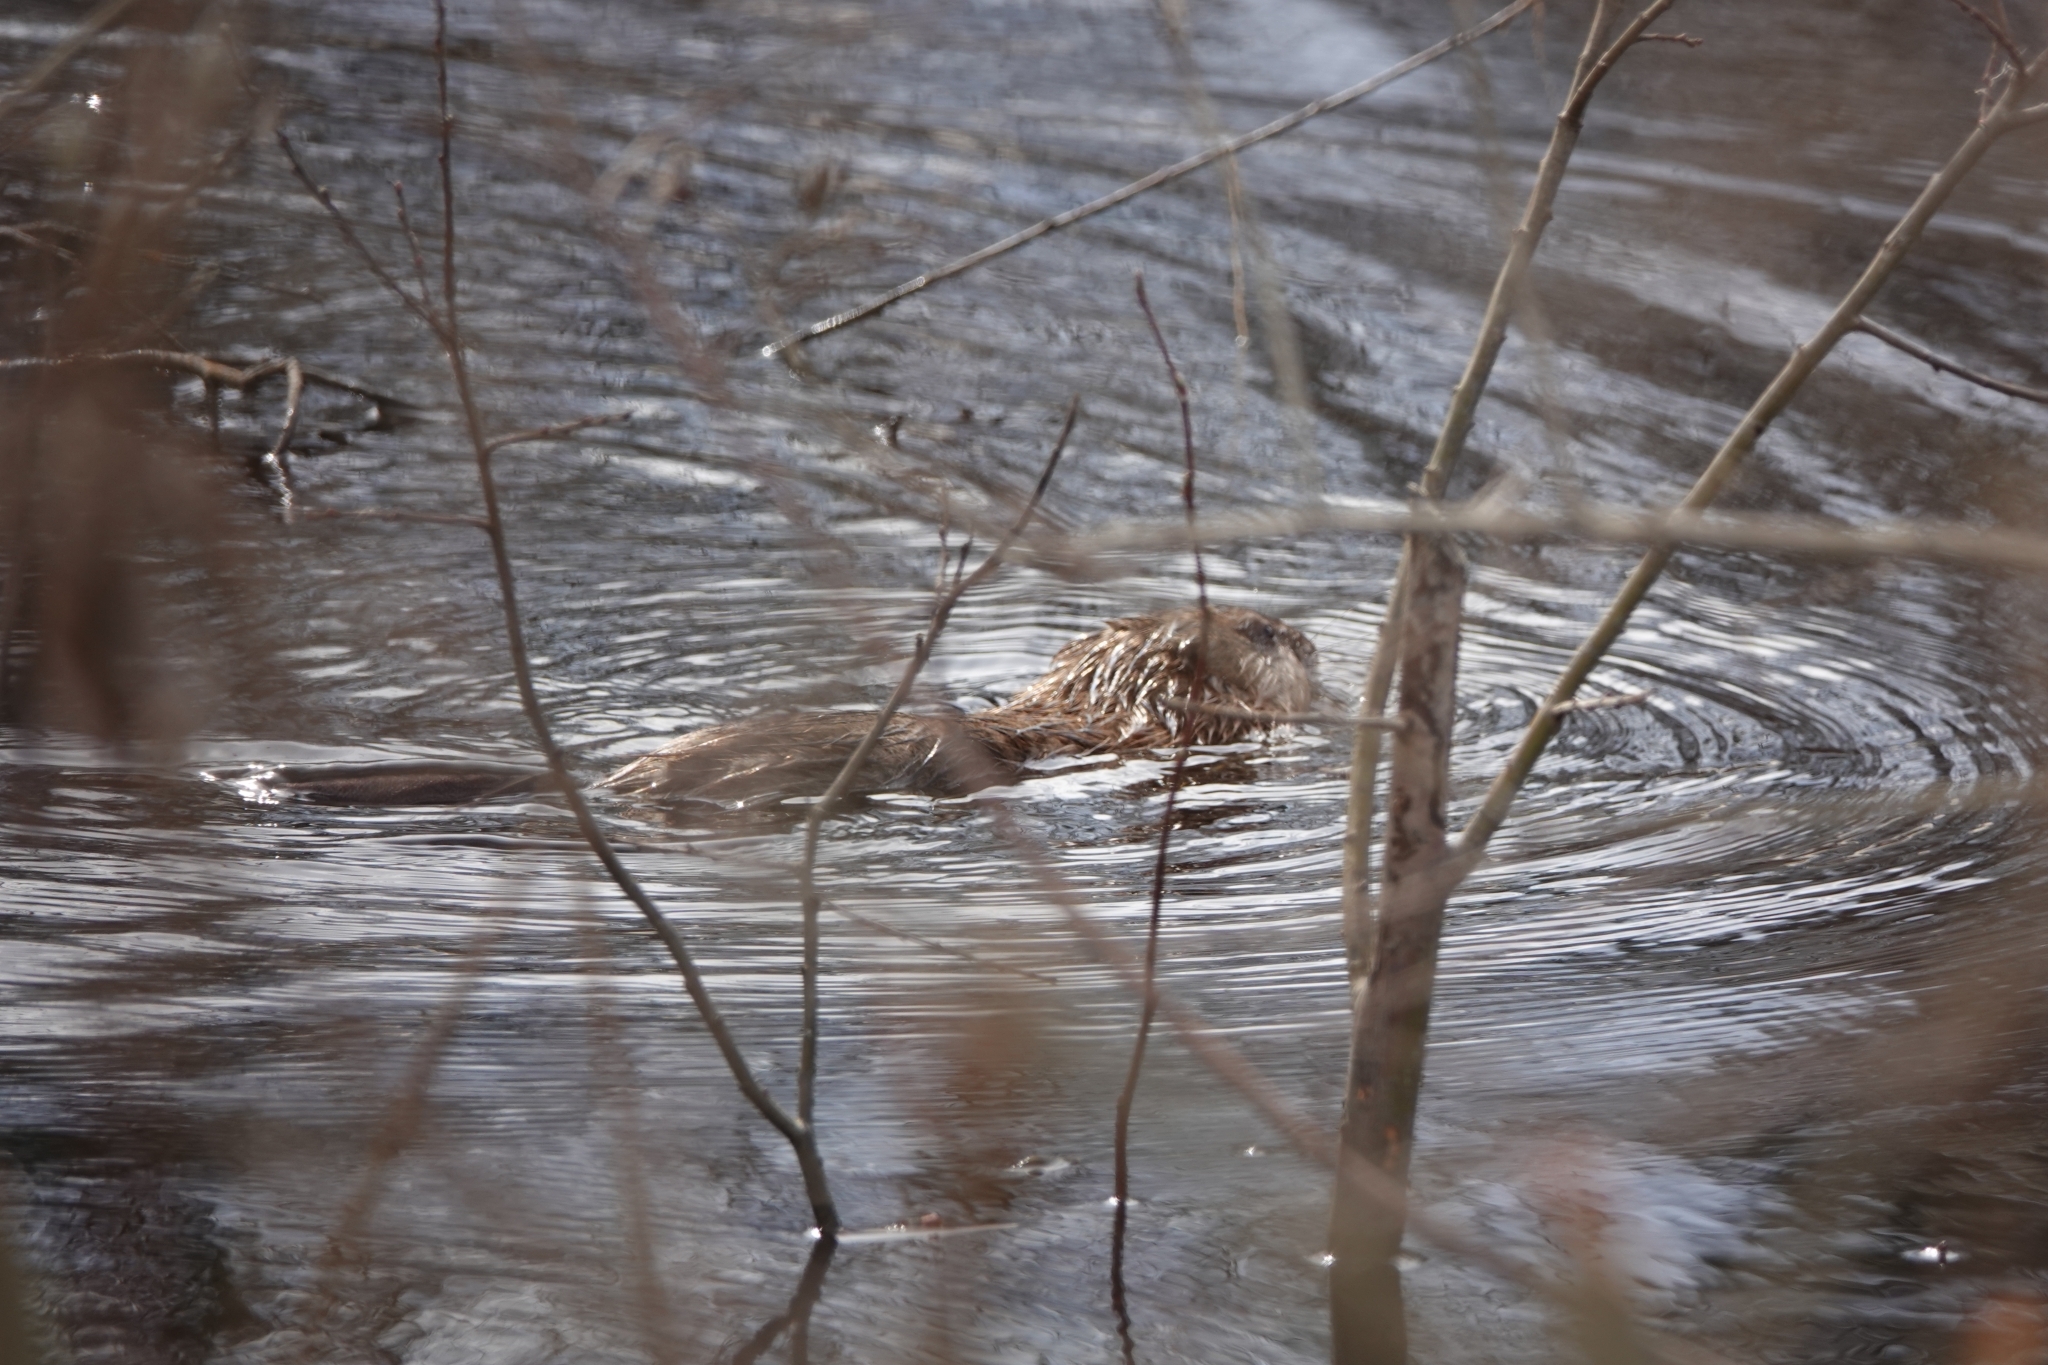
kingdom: Animalia
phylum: Chordata
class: Mammalia
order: Rodentia
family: Cricetidae
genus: Ondatra
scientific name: Ondatra zibethicus
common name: Muskrat
